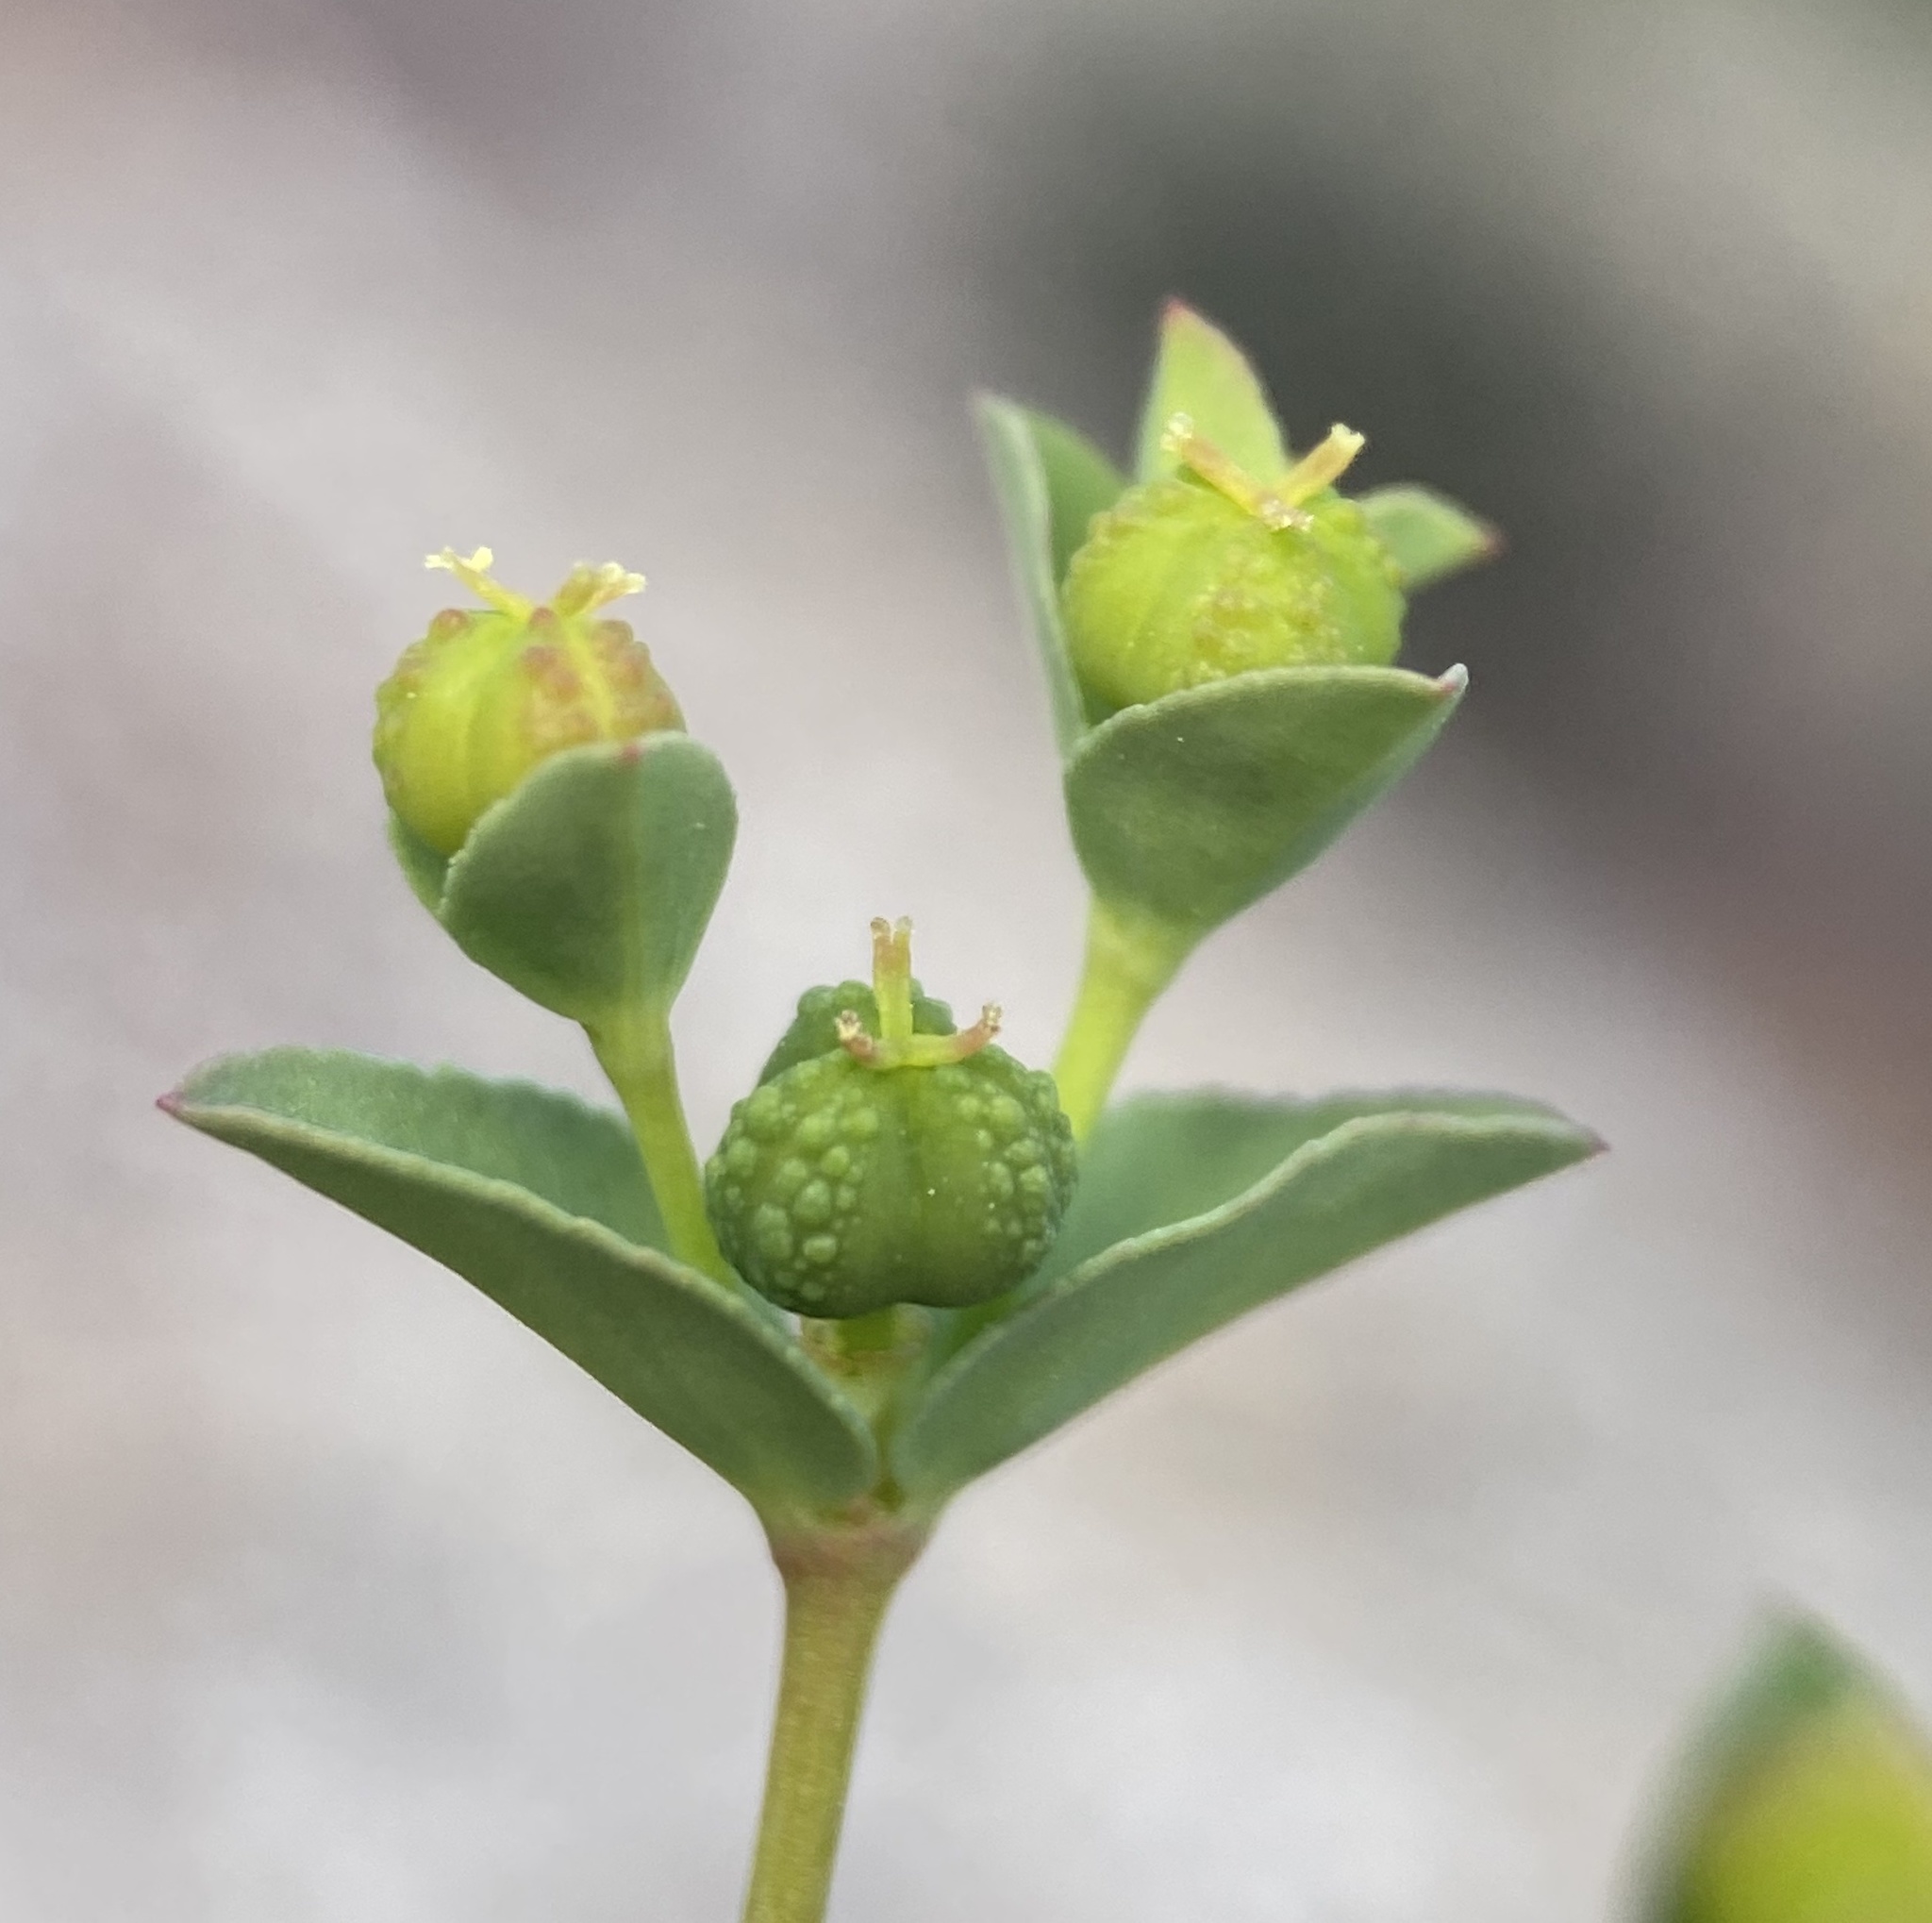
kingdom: Plantae
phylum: Tracheophyta
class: Magnoliopsida
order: Malpighiales
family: Euphorbiaceae
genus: Euphorbia
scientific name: Euphorbia spathulata
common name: Blunt spurge
